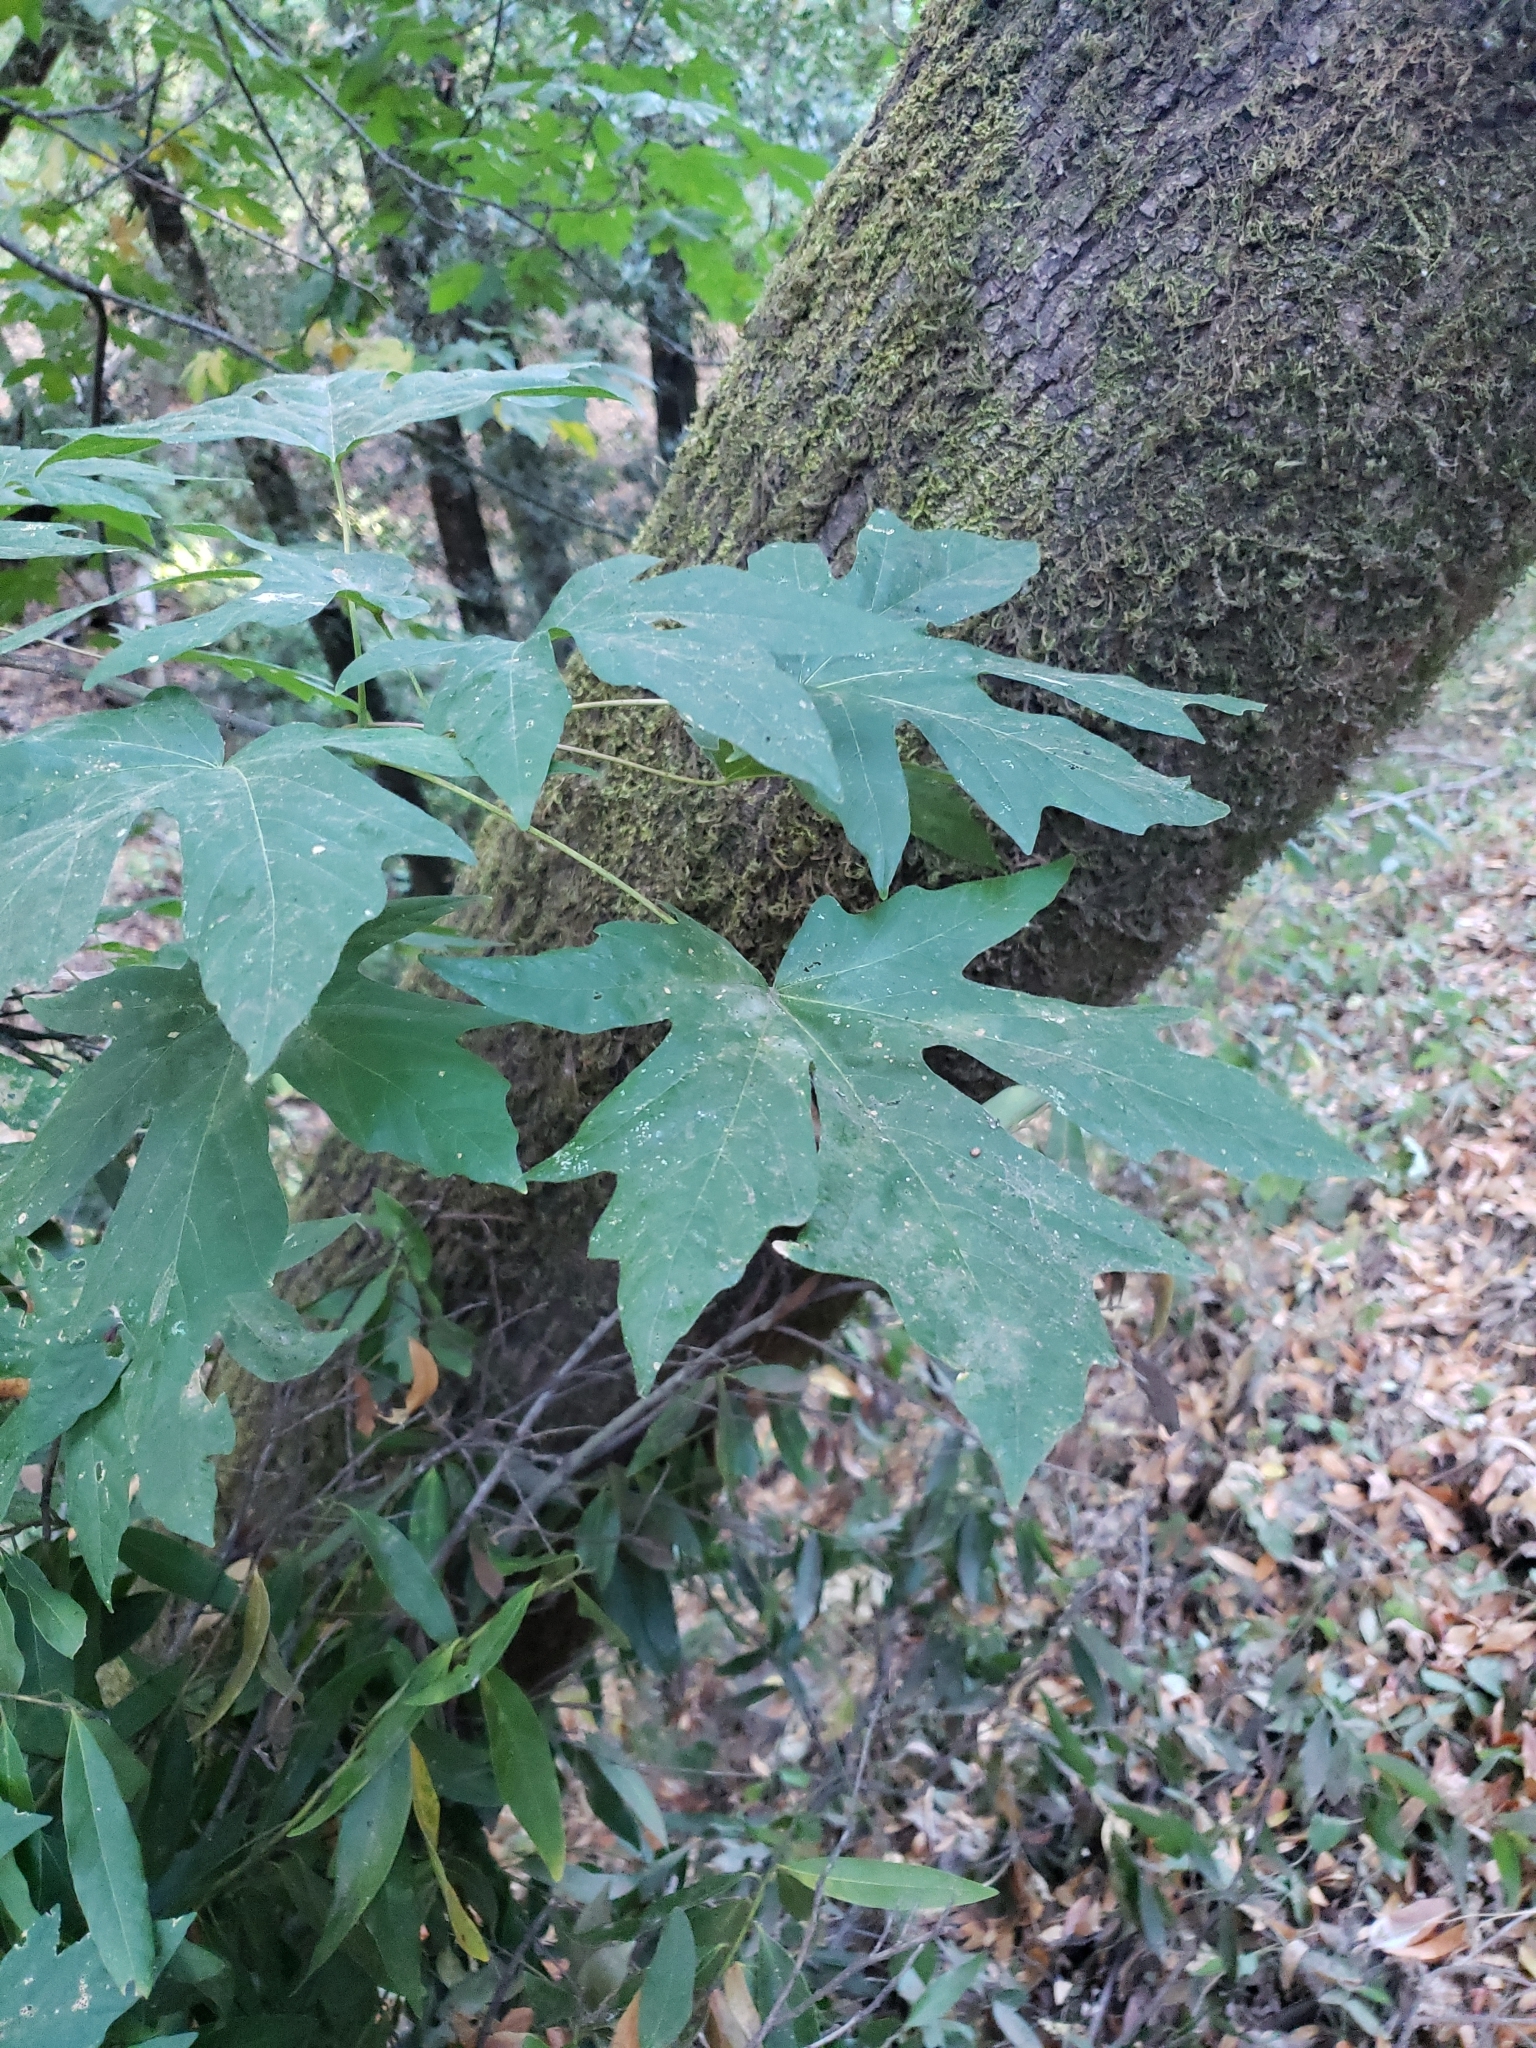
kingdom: Plantae
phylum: Tracheophyta
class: Magnoliopsida
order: Sapindales
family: Sapindaceae
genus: Acer
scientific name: Acer macrophyllum
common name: Oregon maple
